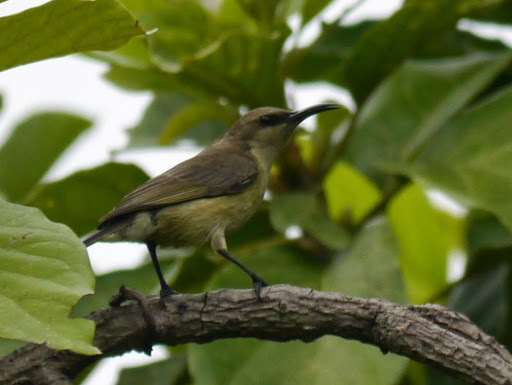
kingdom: Animalia
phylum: Chordata
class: Aves
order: Passeriformes
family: Nectariniidae
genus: Cinnyris
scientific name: Cinnyris cupreus
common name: Copper sunbird
